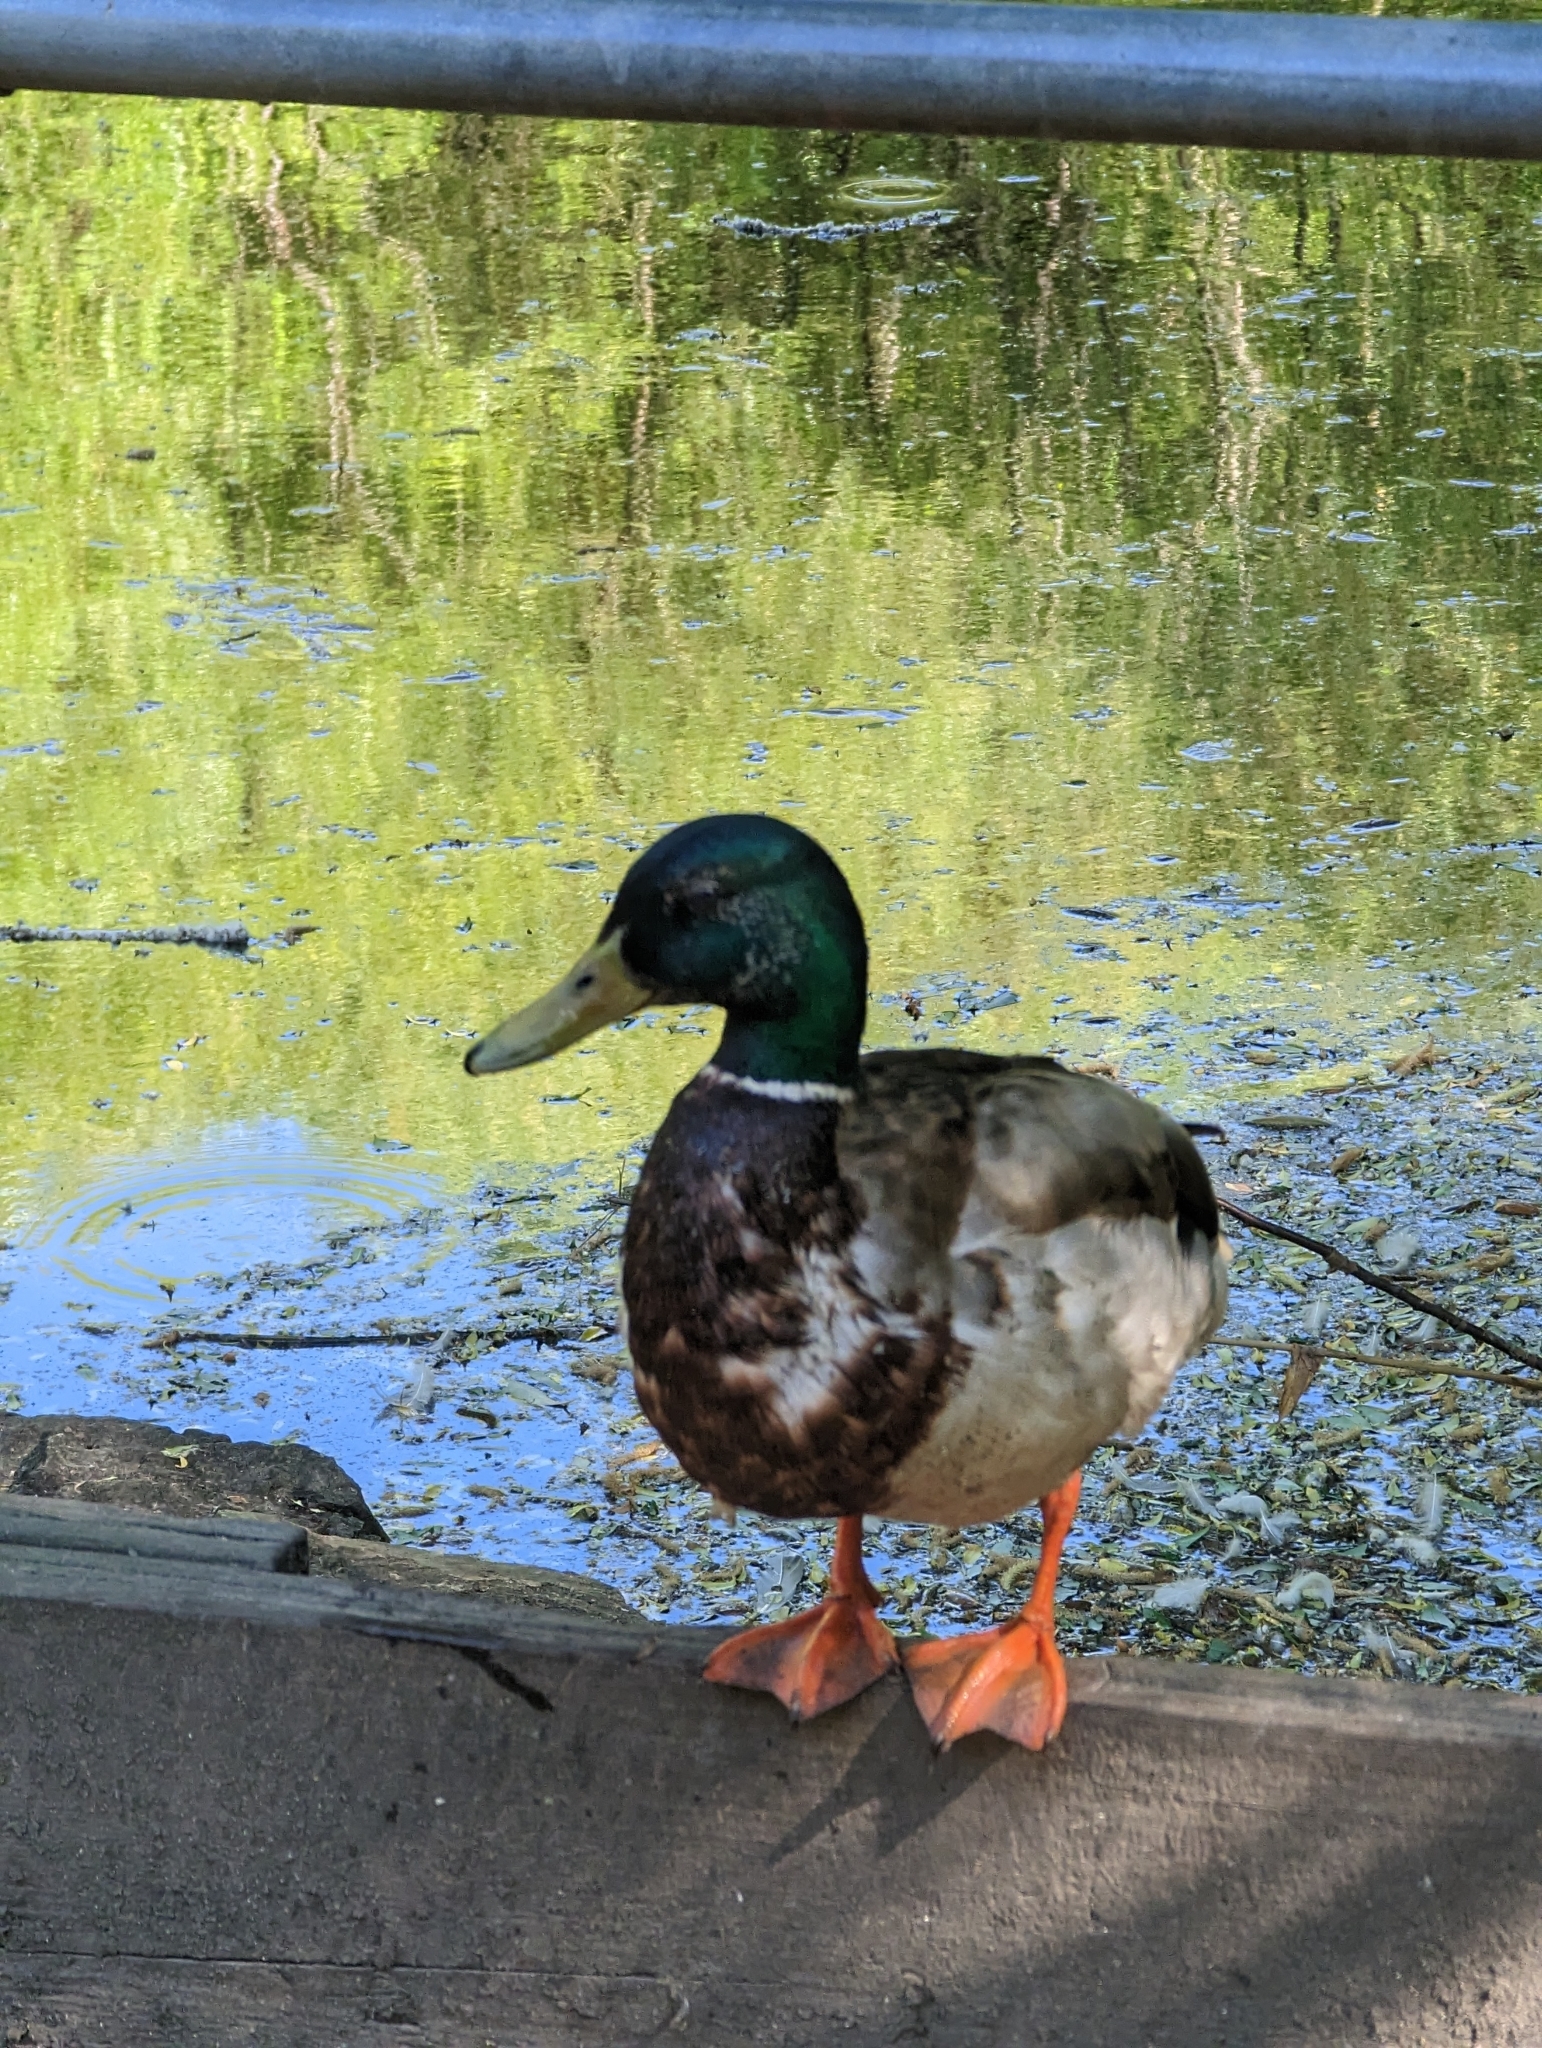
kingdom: Animalia
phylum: Chordata
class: Aves
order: Anseriformes
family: Anatidae
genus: Anas
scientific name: Anas platyrhynchos
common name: Mallard
